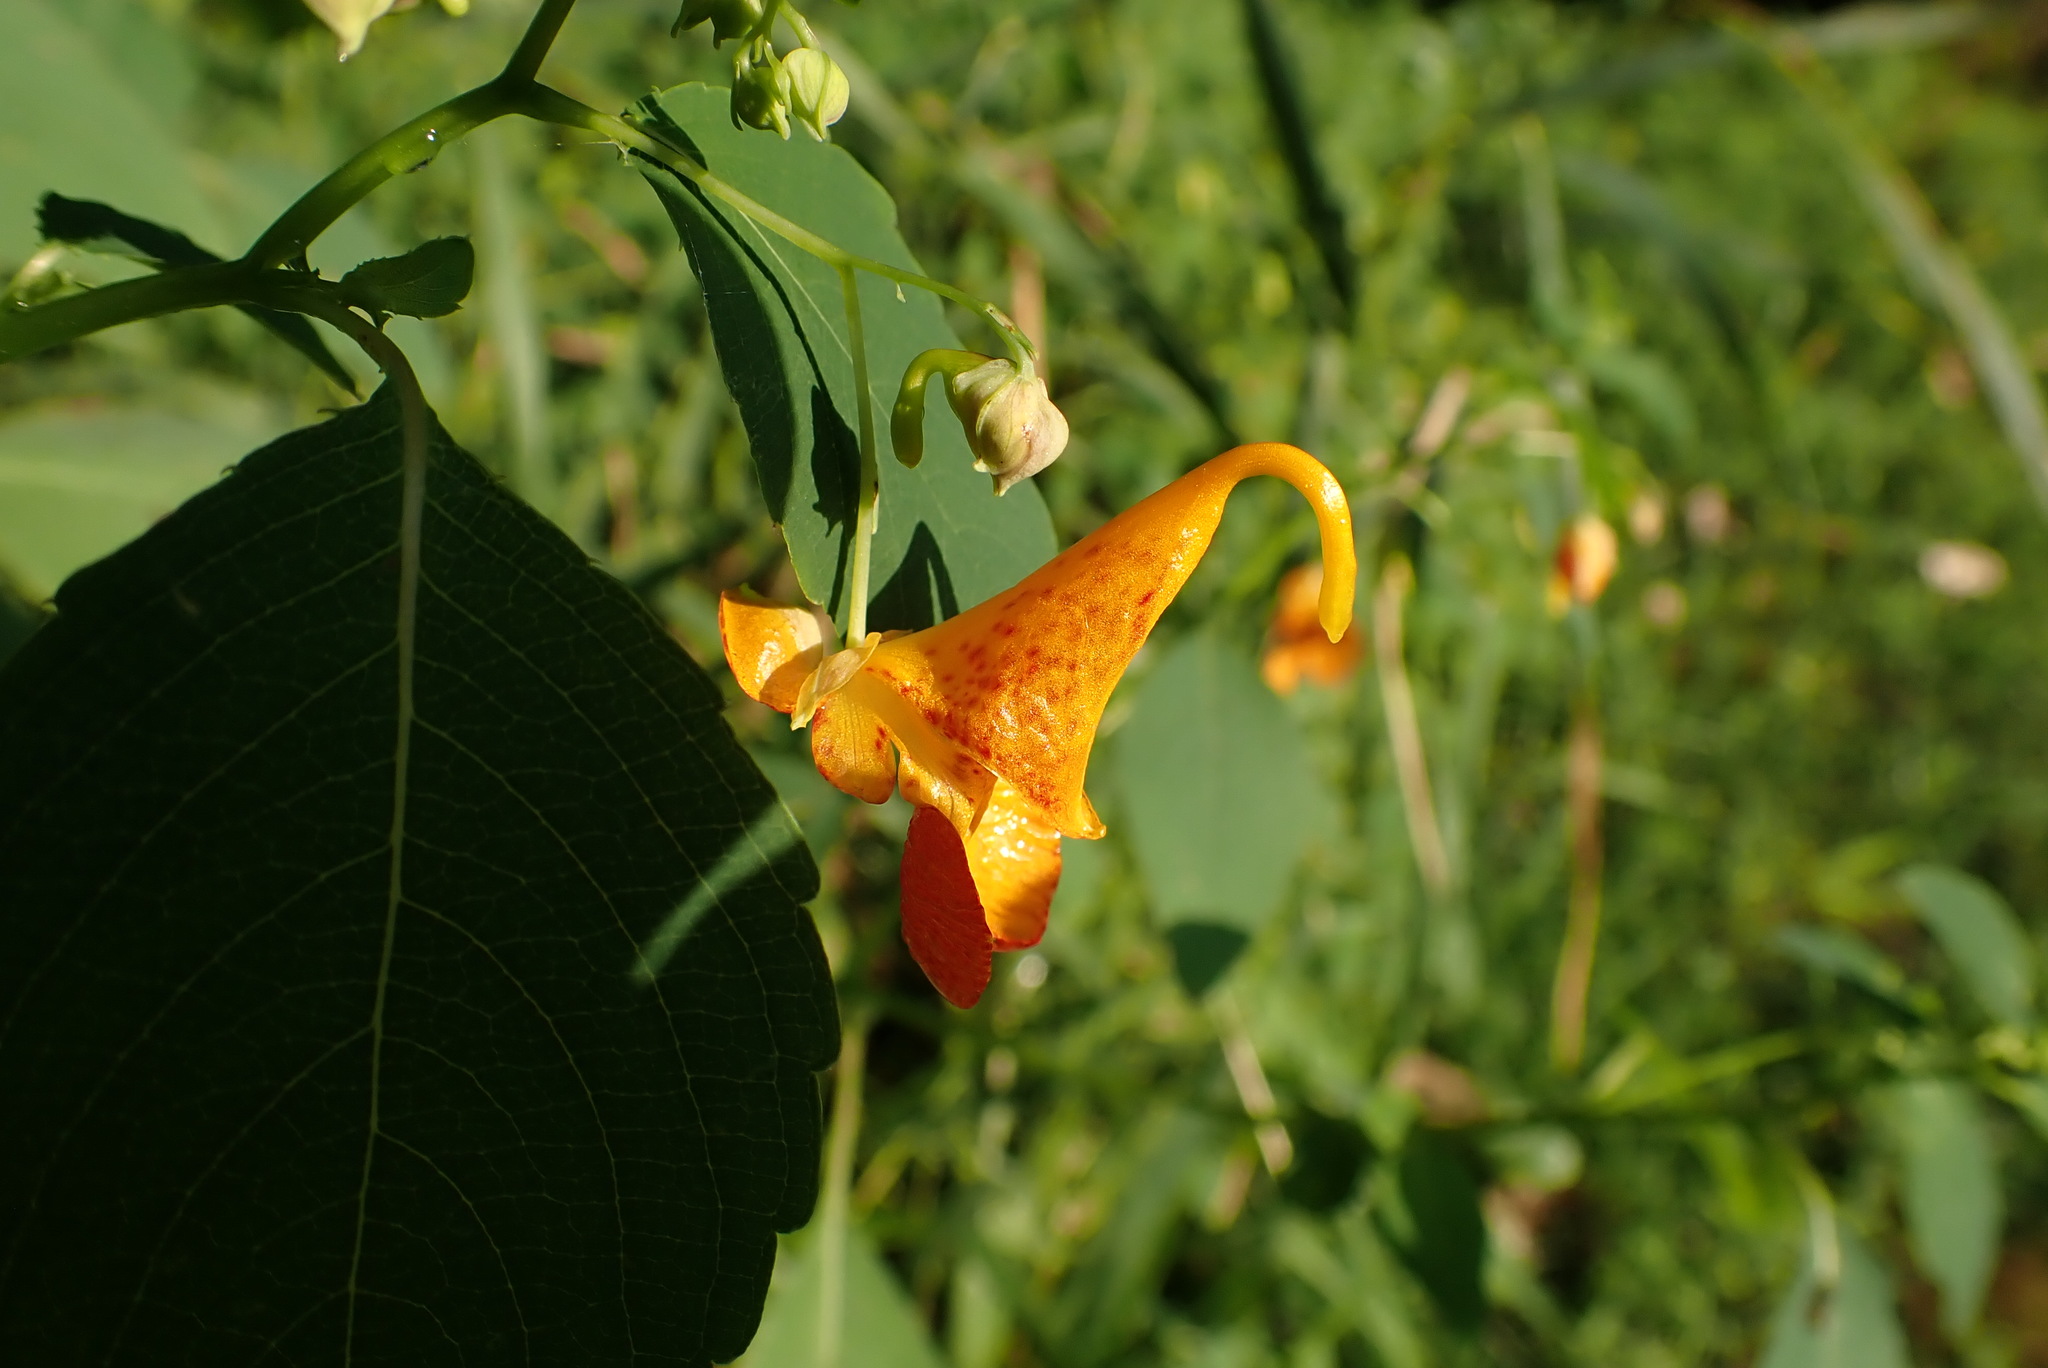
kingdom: Plantae
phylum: Tracheophyta
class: Magnoliopsida
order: Ericales
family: Balsaminaceae
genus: Impatiens
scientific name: Impatiens capensis
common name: Orange balsam
